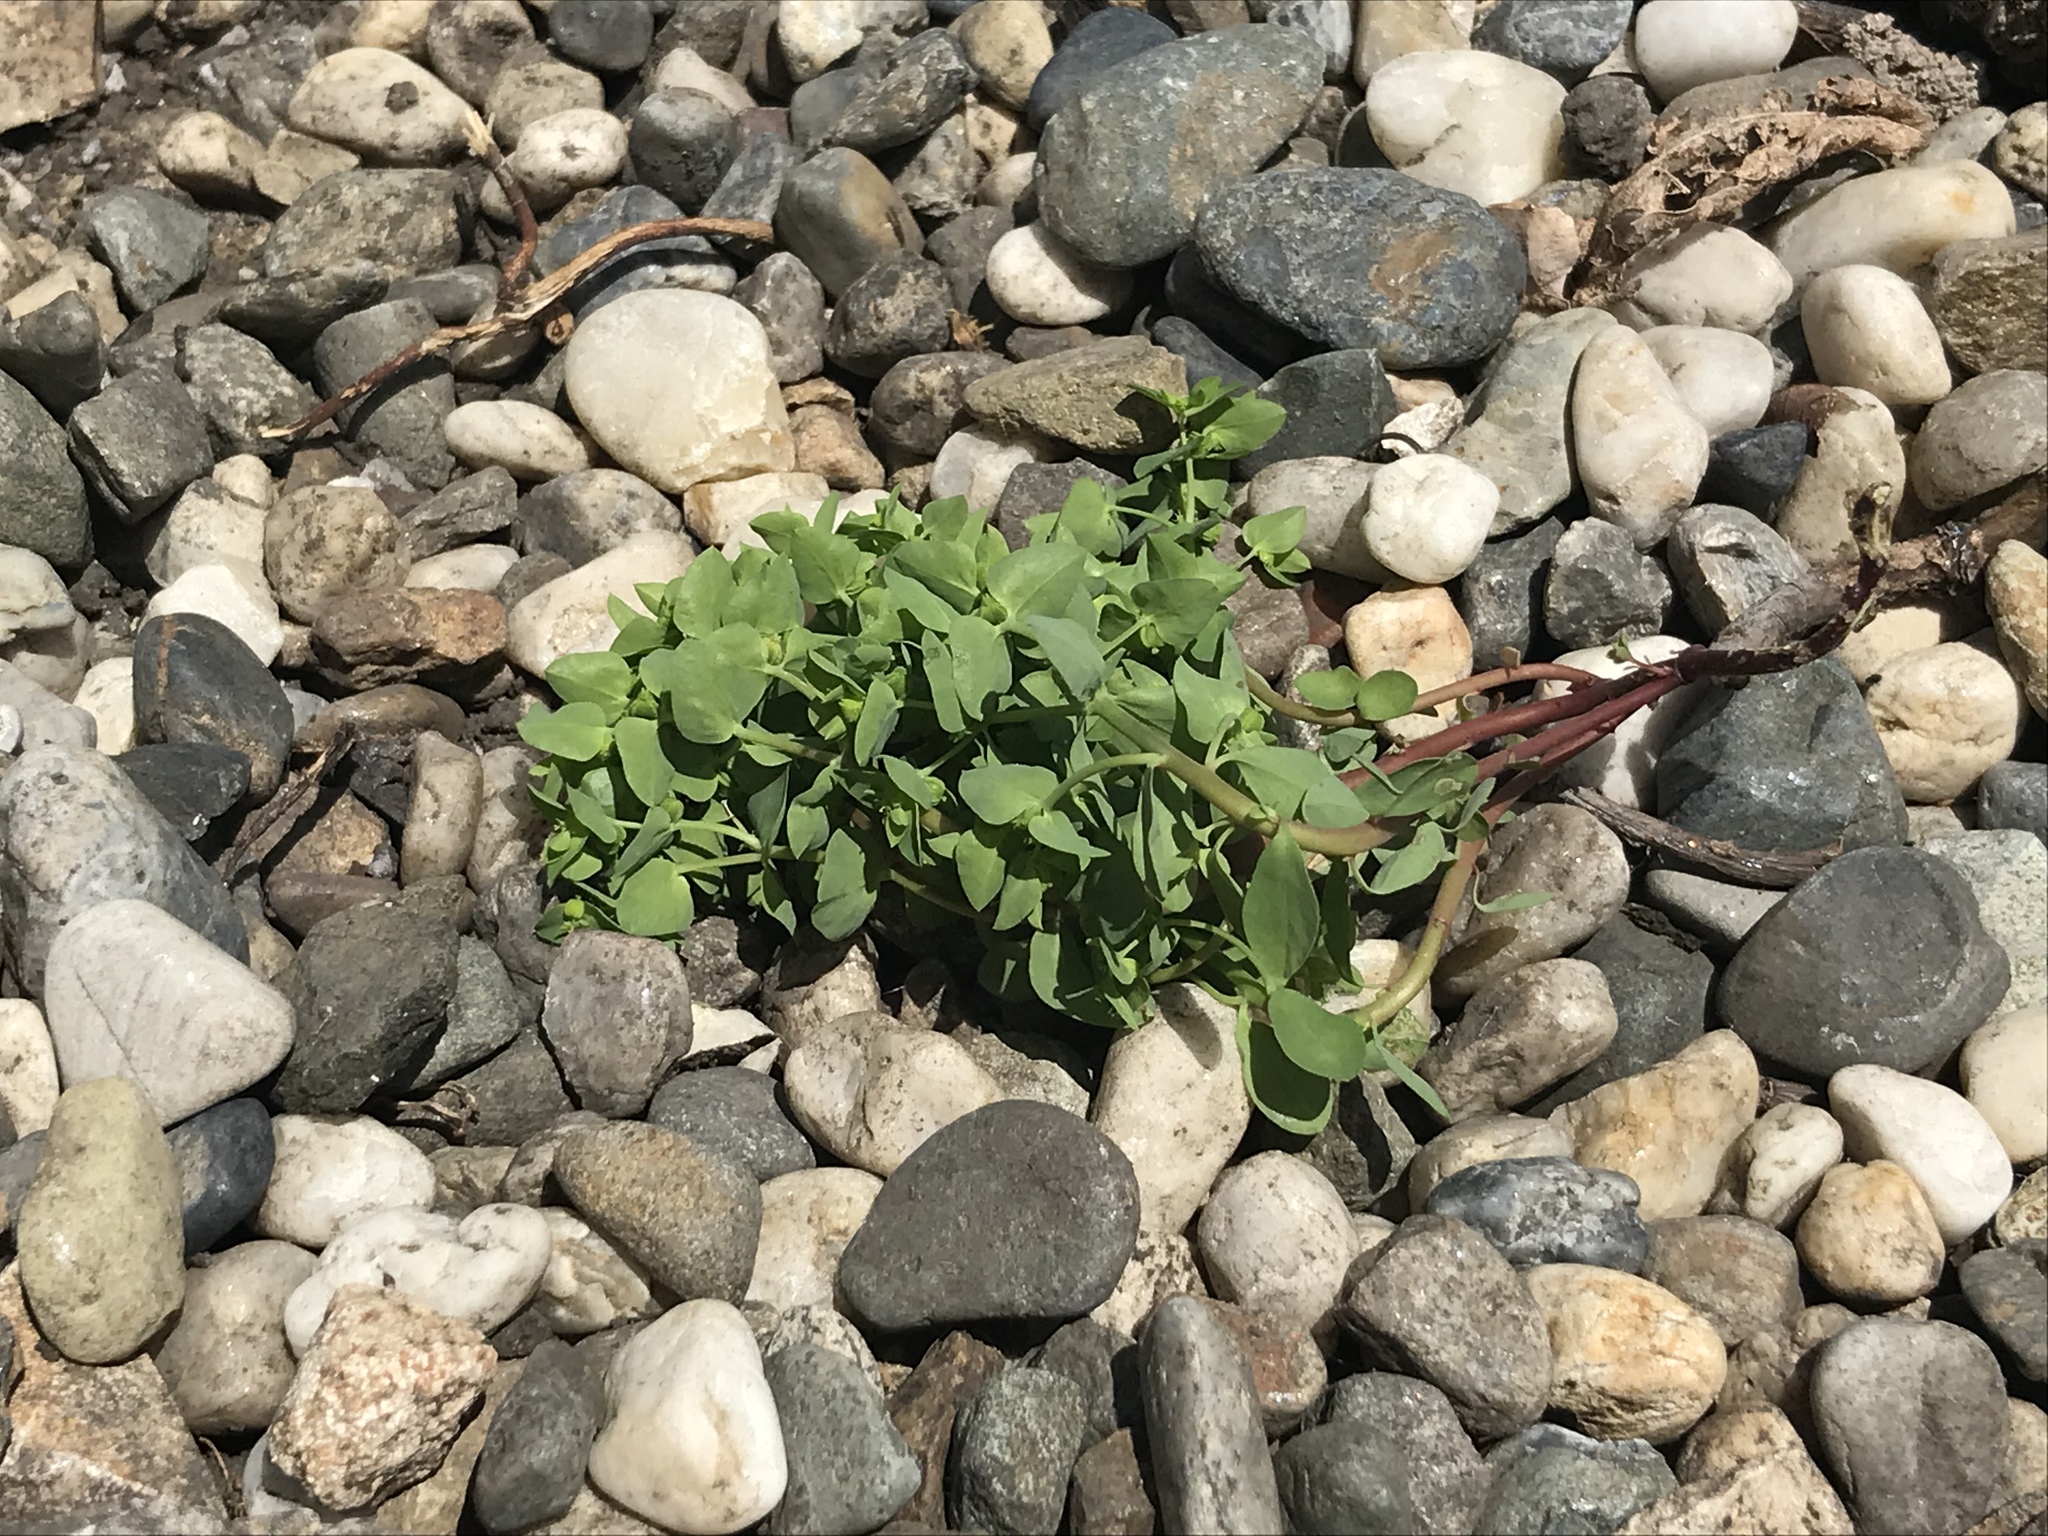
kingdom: Plantae
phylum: Tracheophyta
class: Magnoliopsida
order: Malpighiales
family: Euphorbiaceae
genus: Euphorbia
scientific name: Euphorbia peplus
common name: Petty spurge
